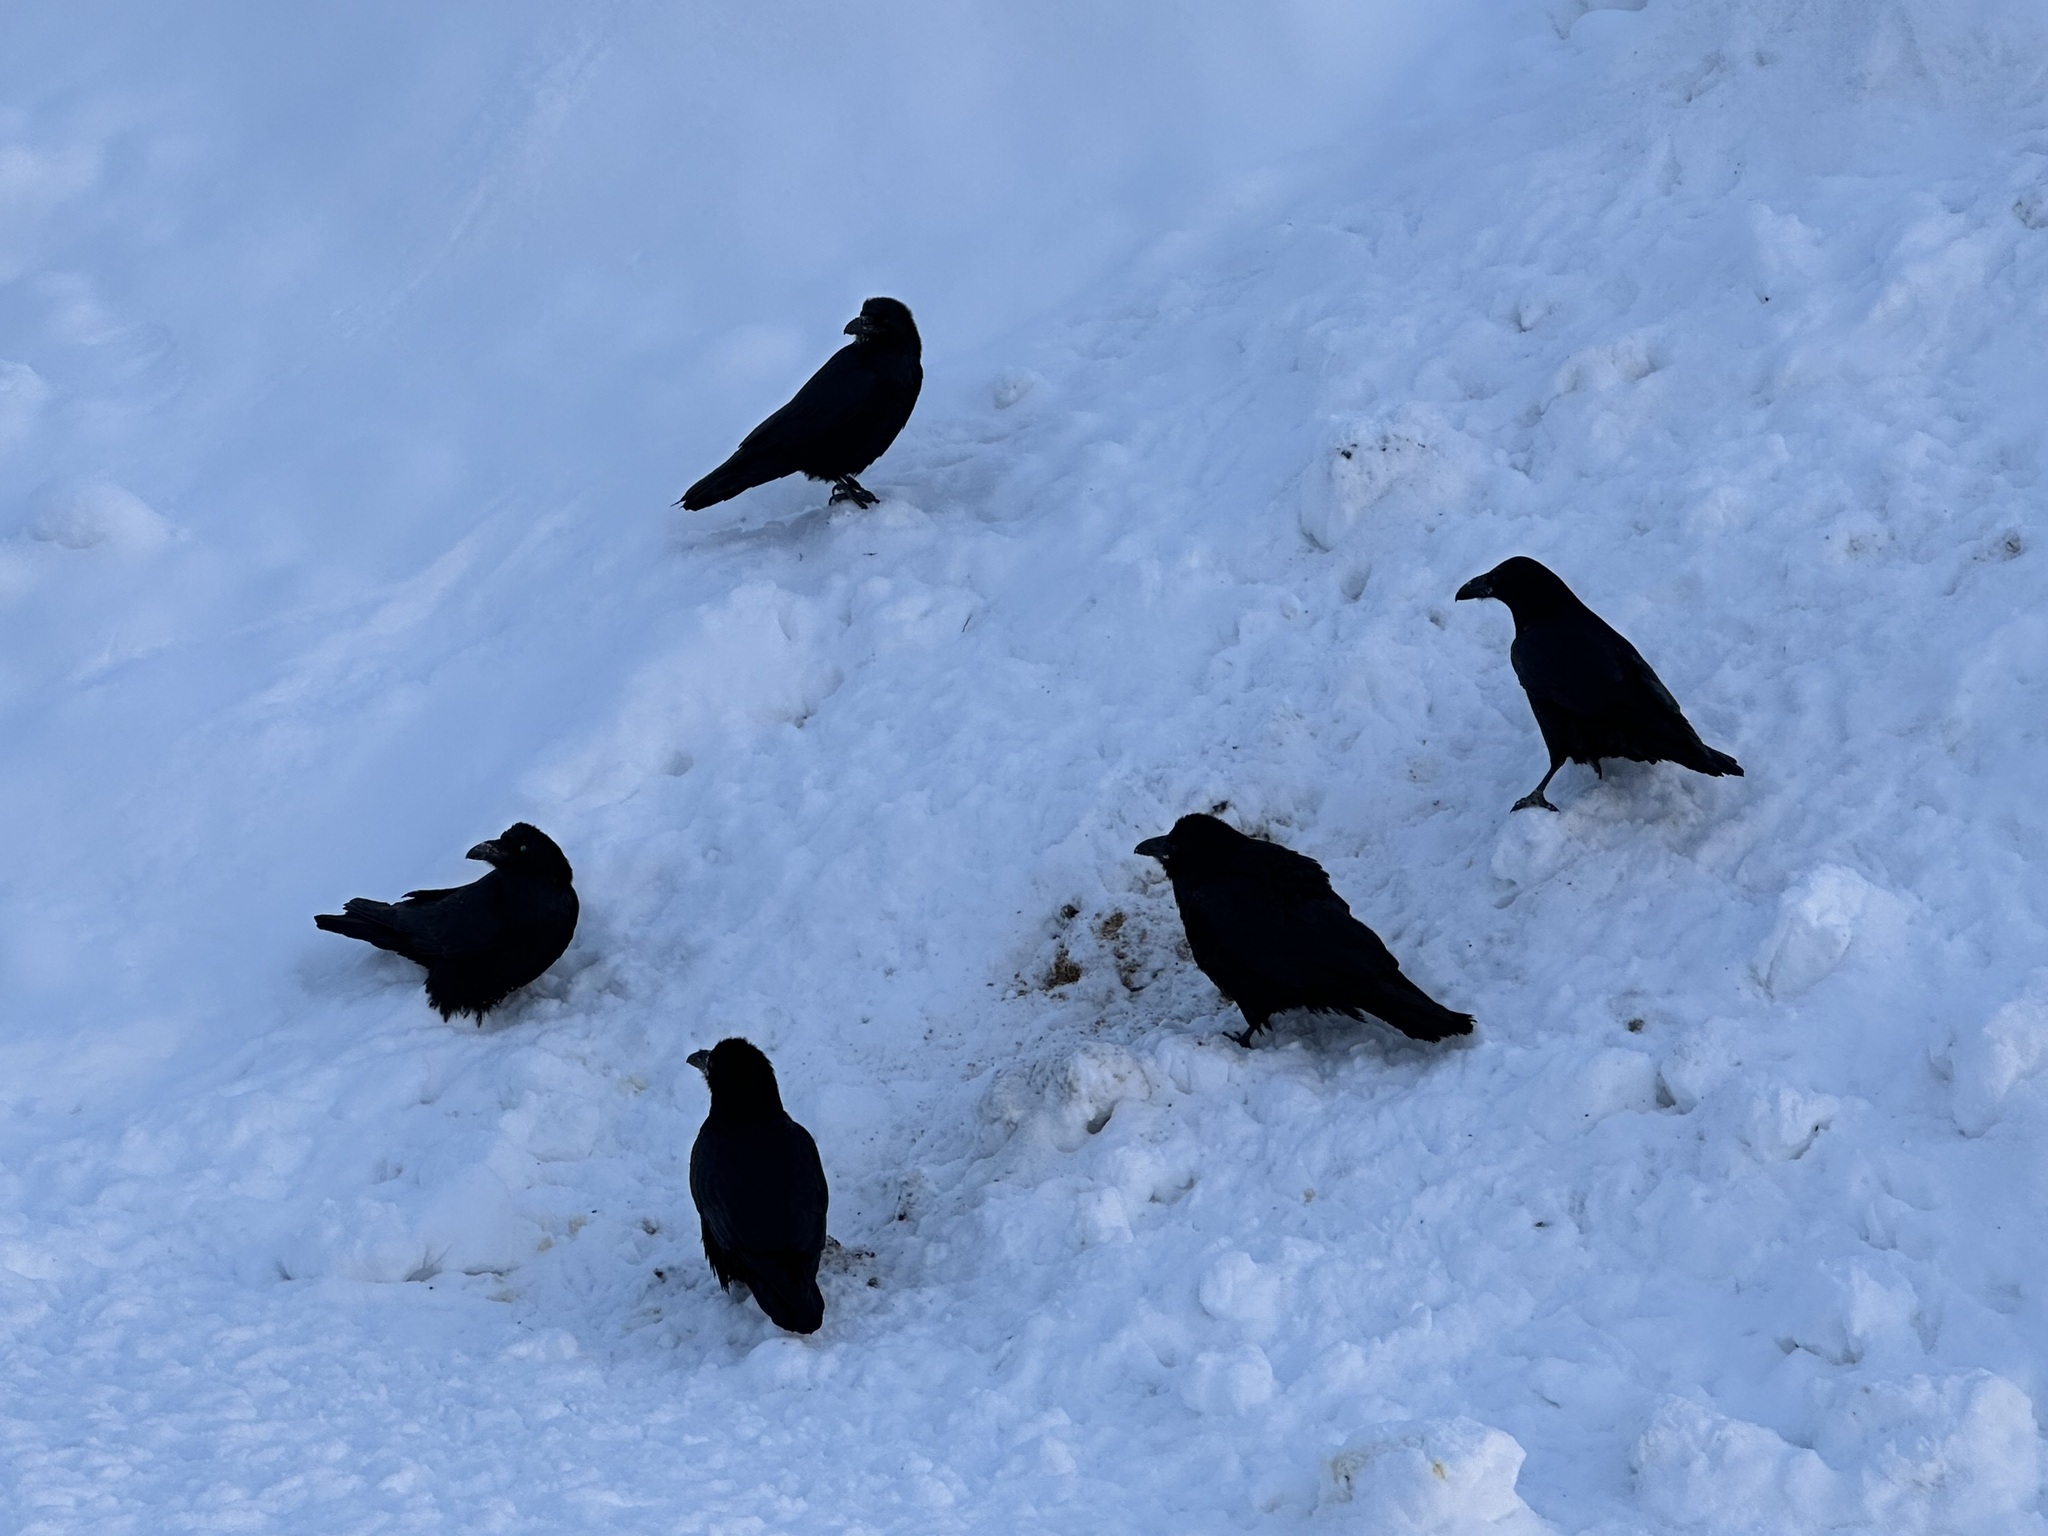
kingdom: Animalia
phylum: Chordata
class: Aves
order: Passeriformes
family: Corvidae
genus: Corvus
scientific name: Corvus corax
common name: Common raven
